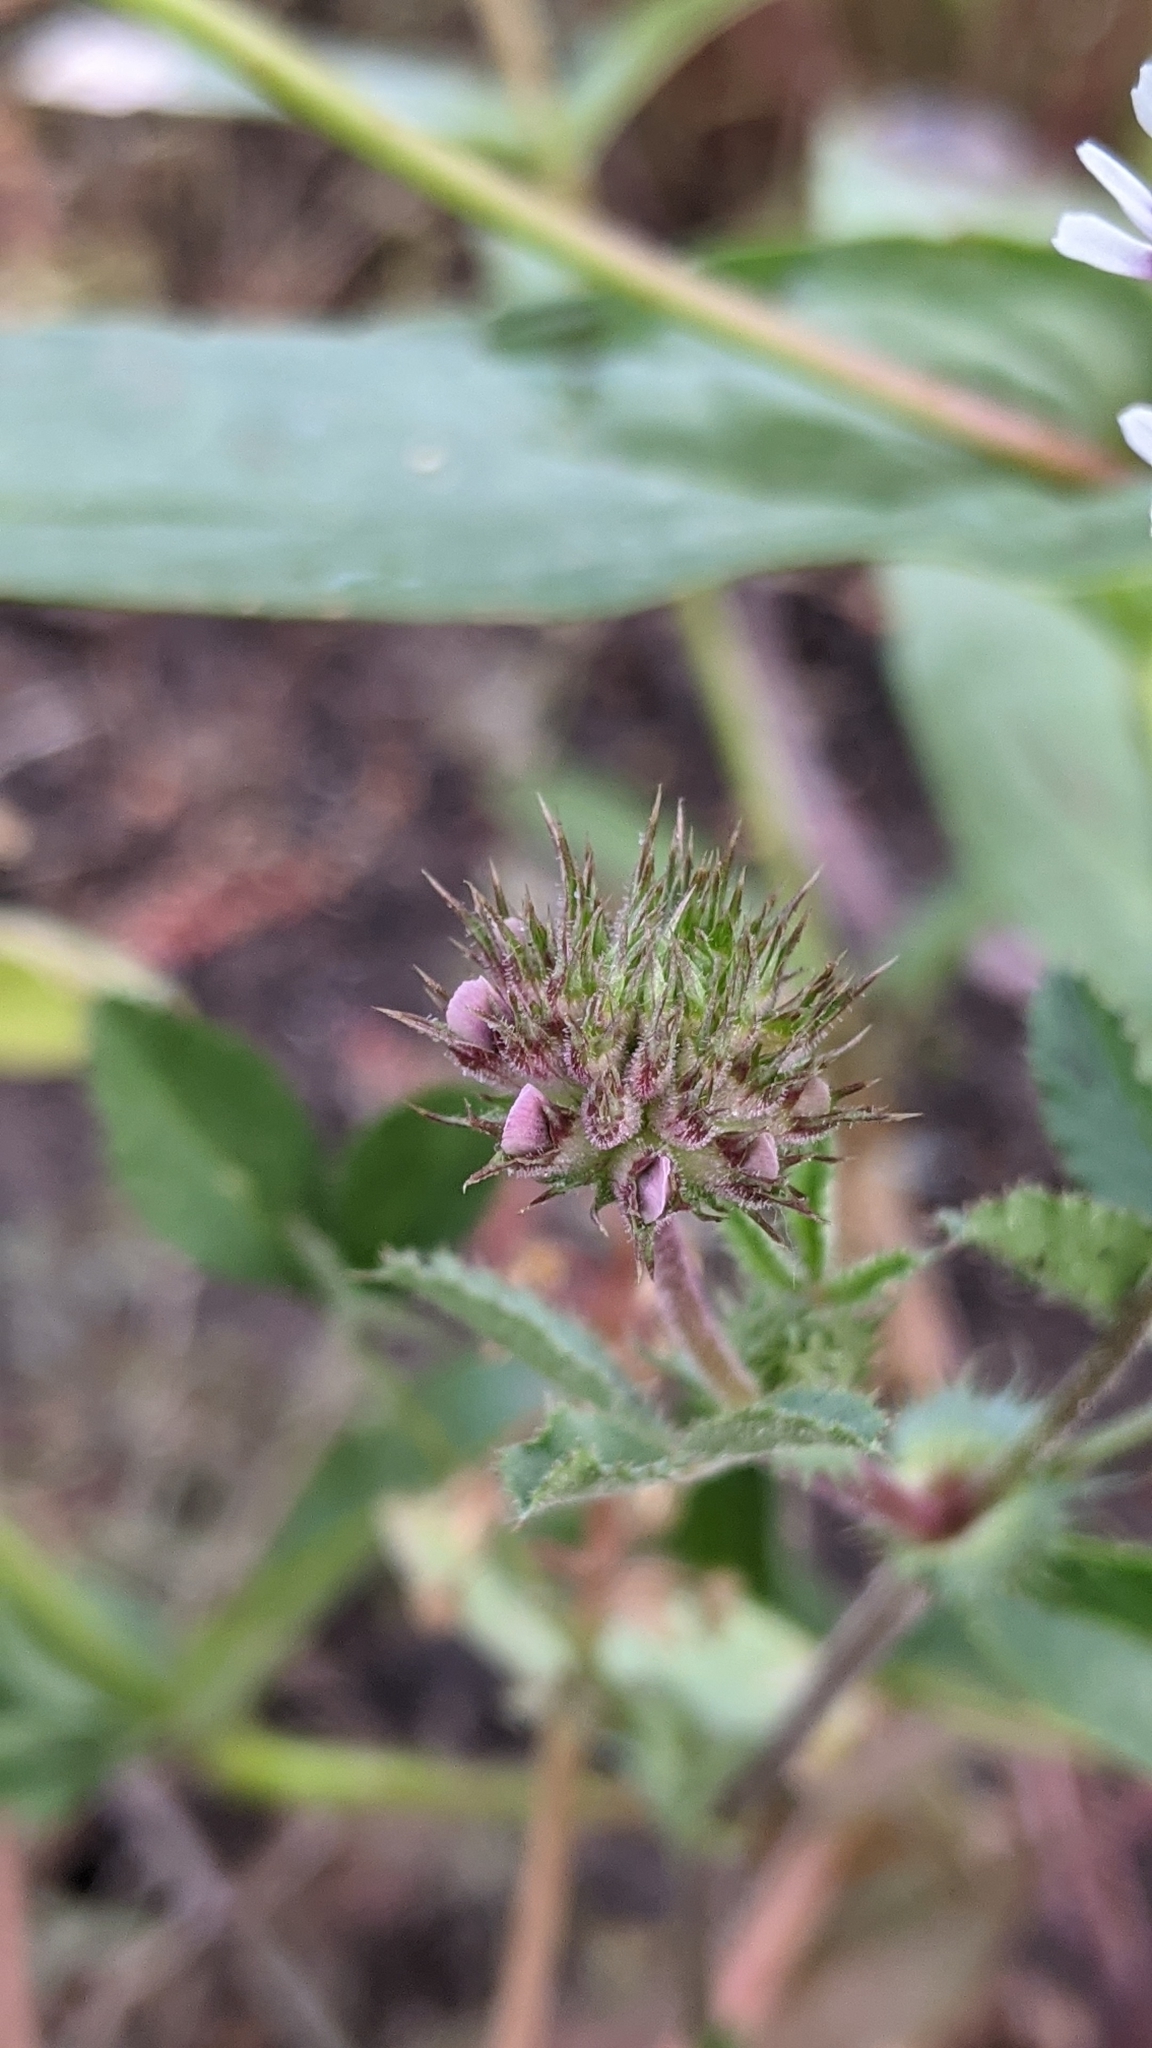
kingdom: Plantae
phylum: Tracheophyta
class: Magnoliopsida
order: Fabales
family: Fabaceae
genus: Trifolium
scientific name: Trifolium obtusiflorum
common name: Clammy clover
